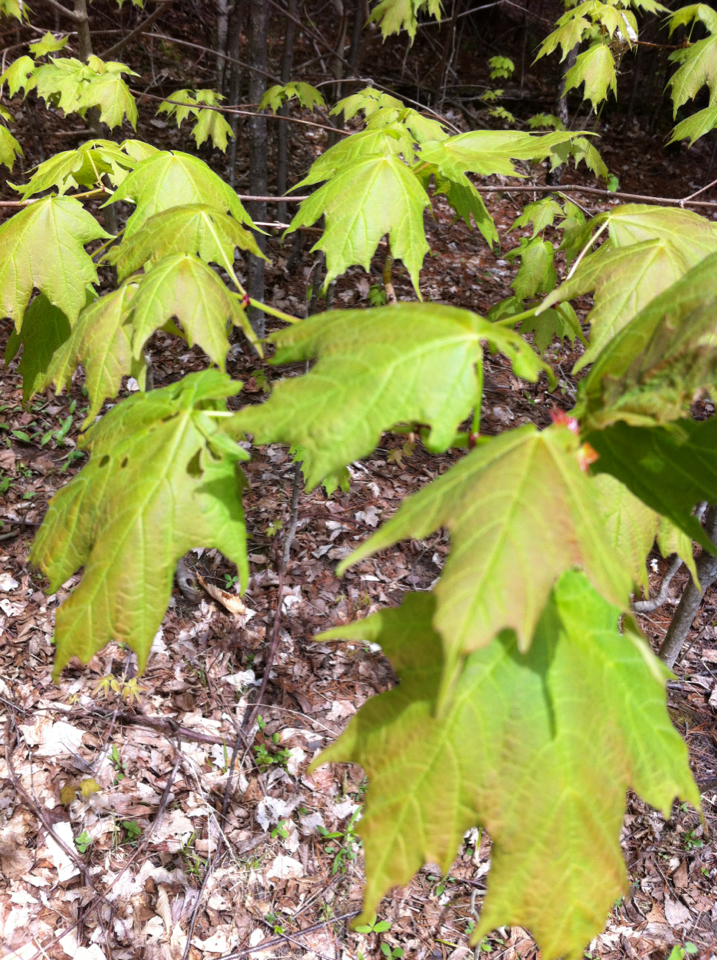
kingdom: Plantae
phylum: Tracheophyta
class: Magnoliopsida
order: Sapindales
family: Sapindaceae
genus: Acer
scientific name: Acer saccharum
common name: Sugar maple
